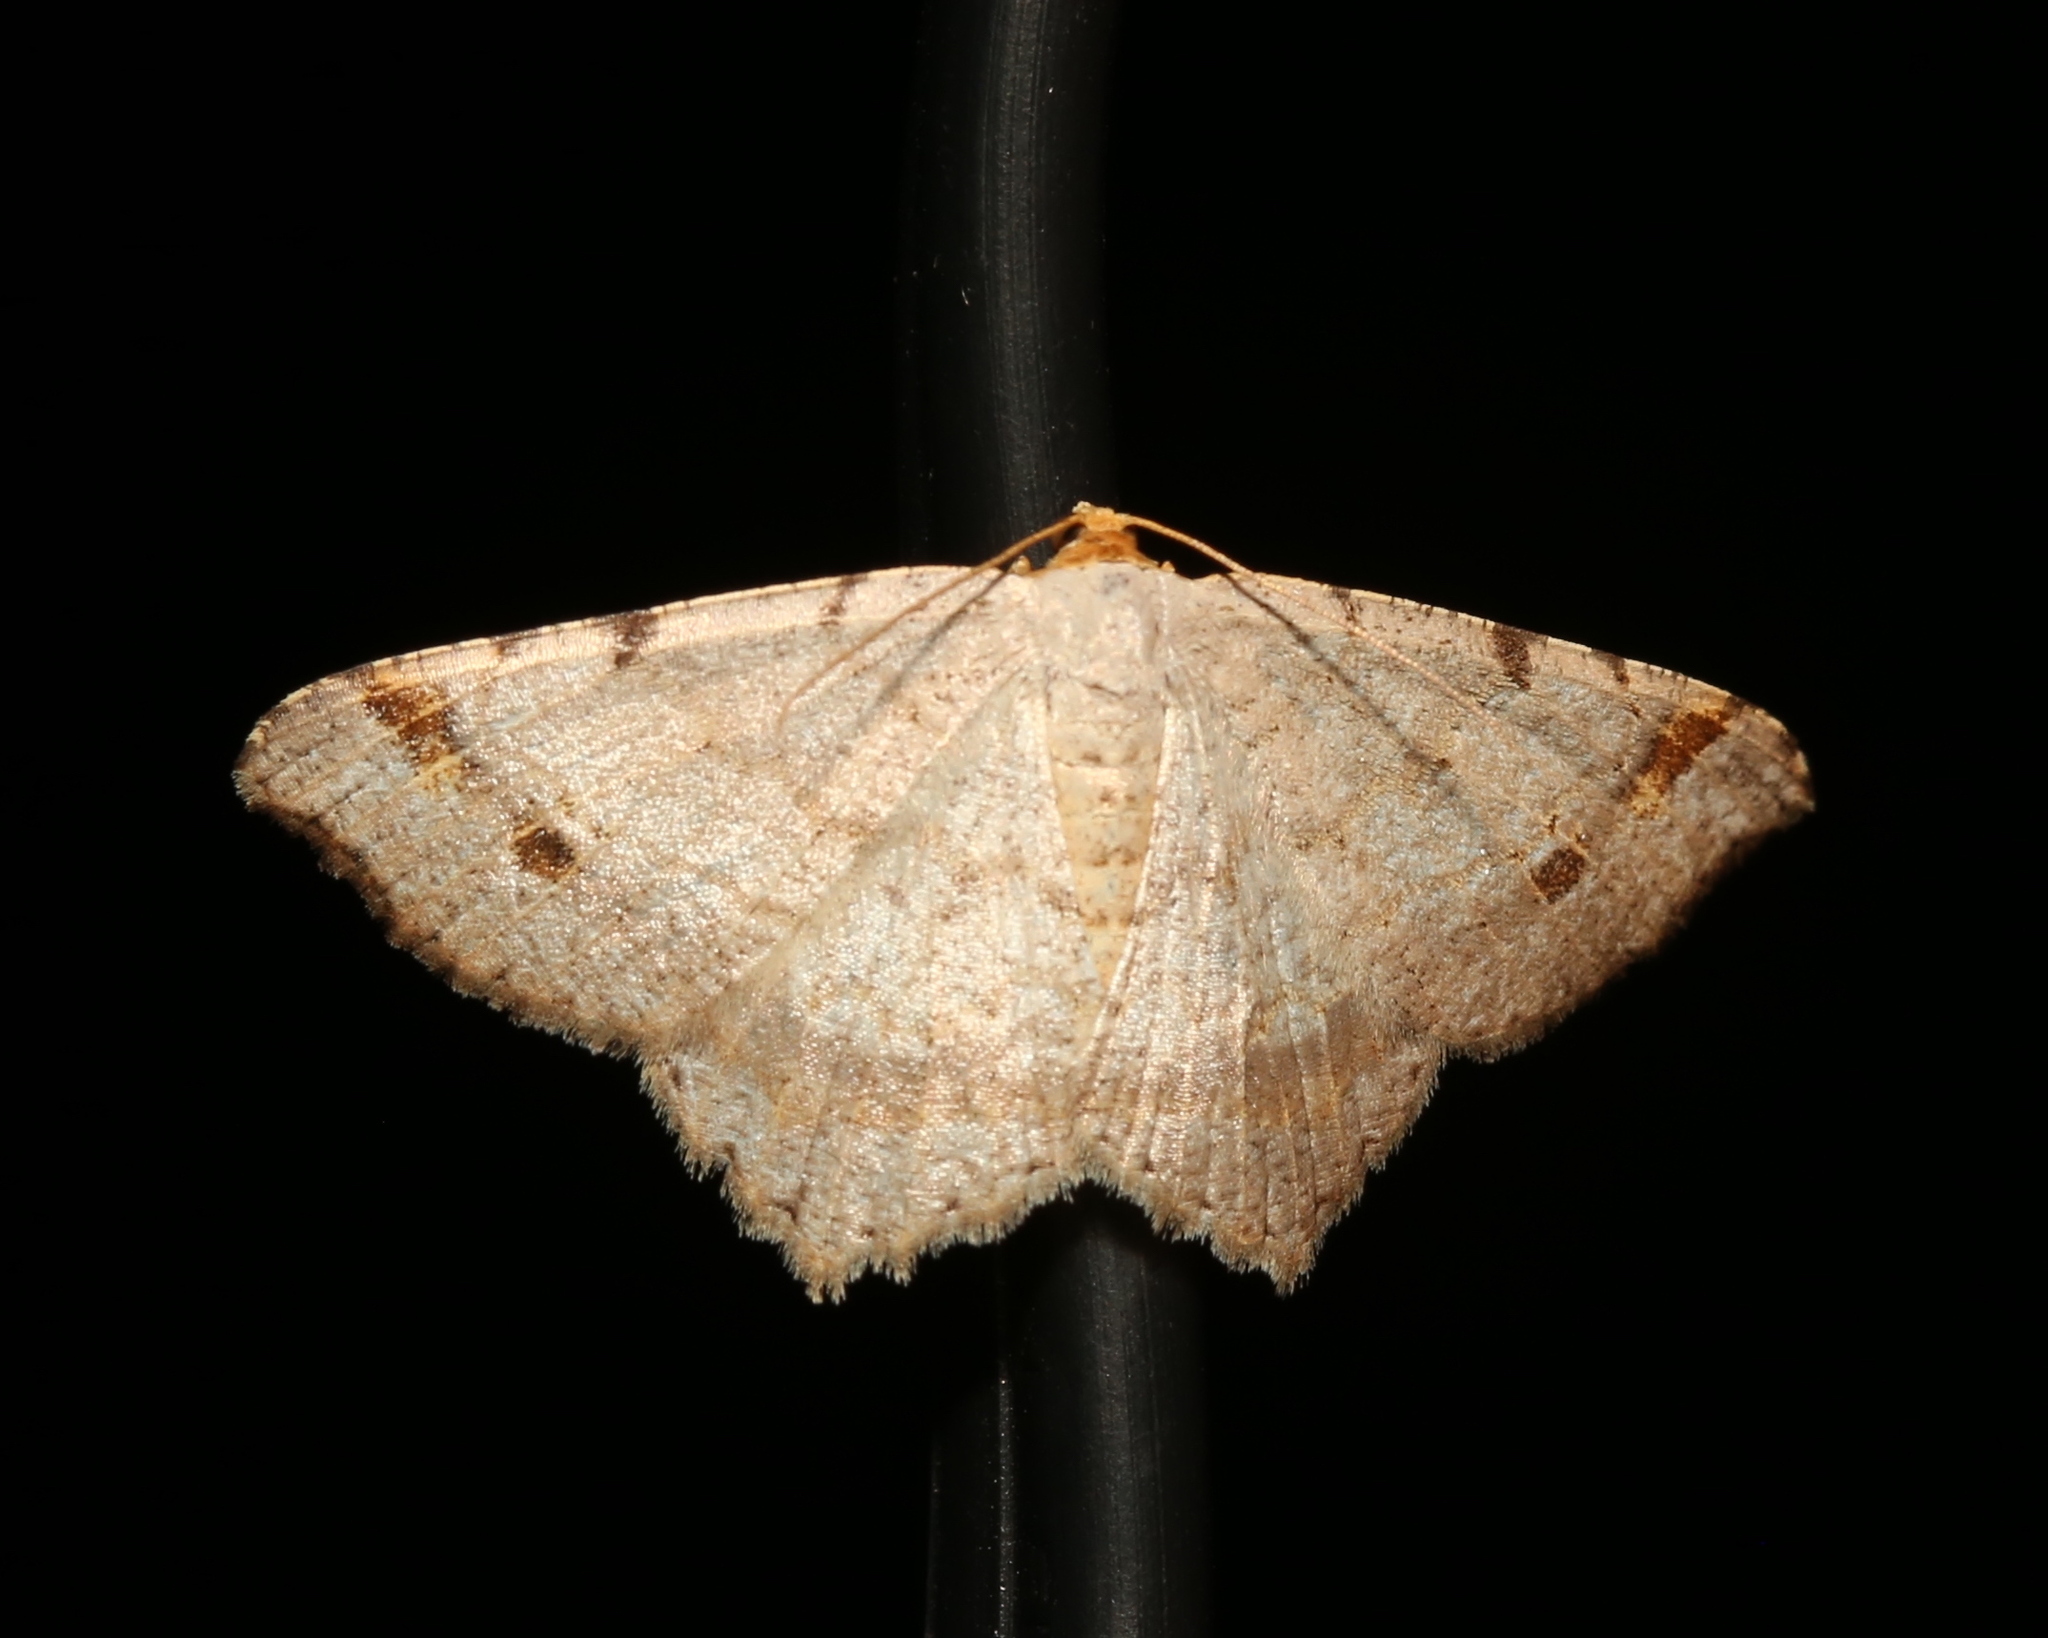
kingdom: Animalia
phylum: Arthropoda
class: Insecta
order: Lepidoptera
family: Geometridae
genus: Macaria
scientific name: Macaria bisignata
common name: Red-headed inchworm
